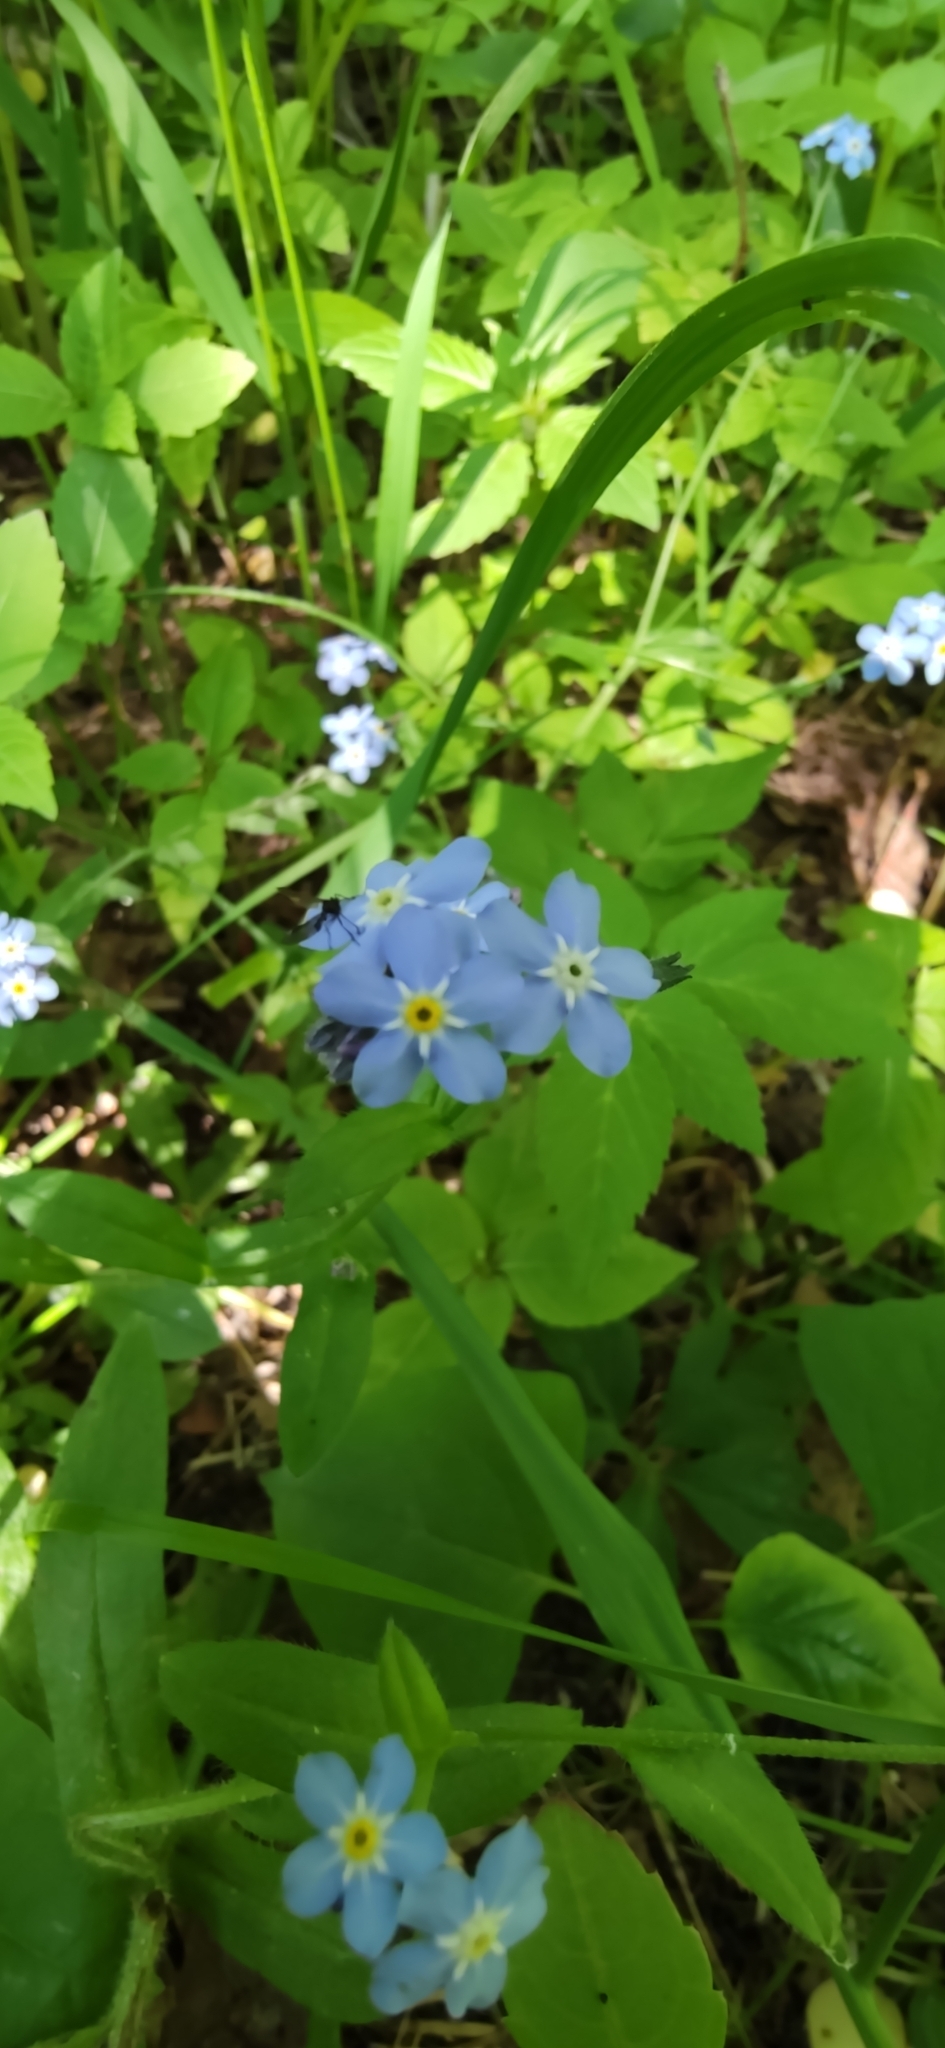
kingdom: Plantae
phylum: Tracheophyta
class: Magnoliopsida
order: Boraginales
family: Boraginaceae
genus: Myosotis
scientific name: Myosotis sylvatica
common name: Wood forget-me-not
